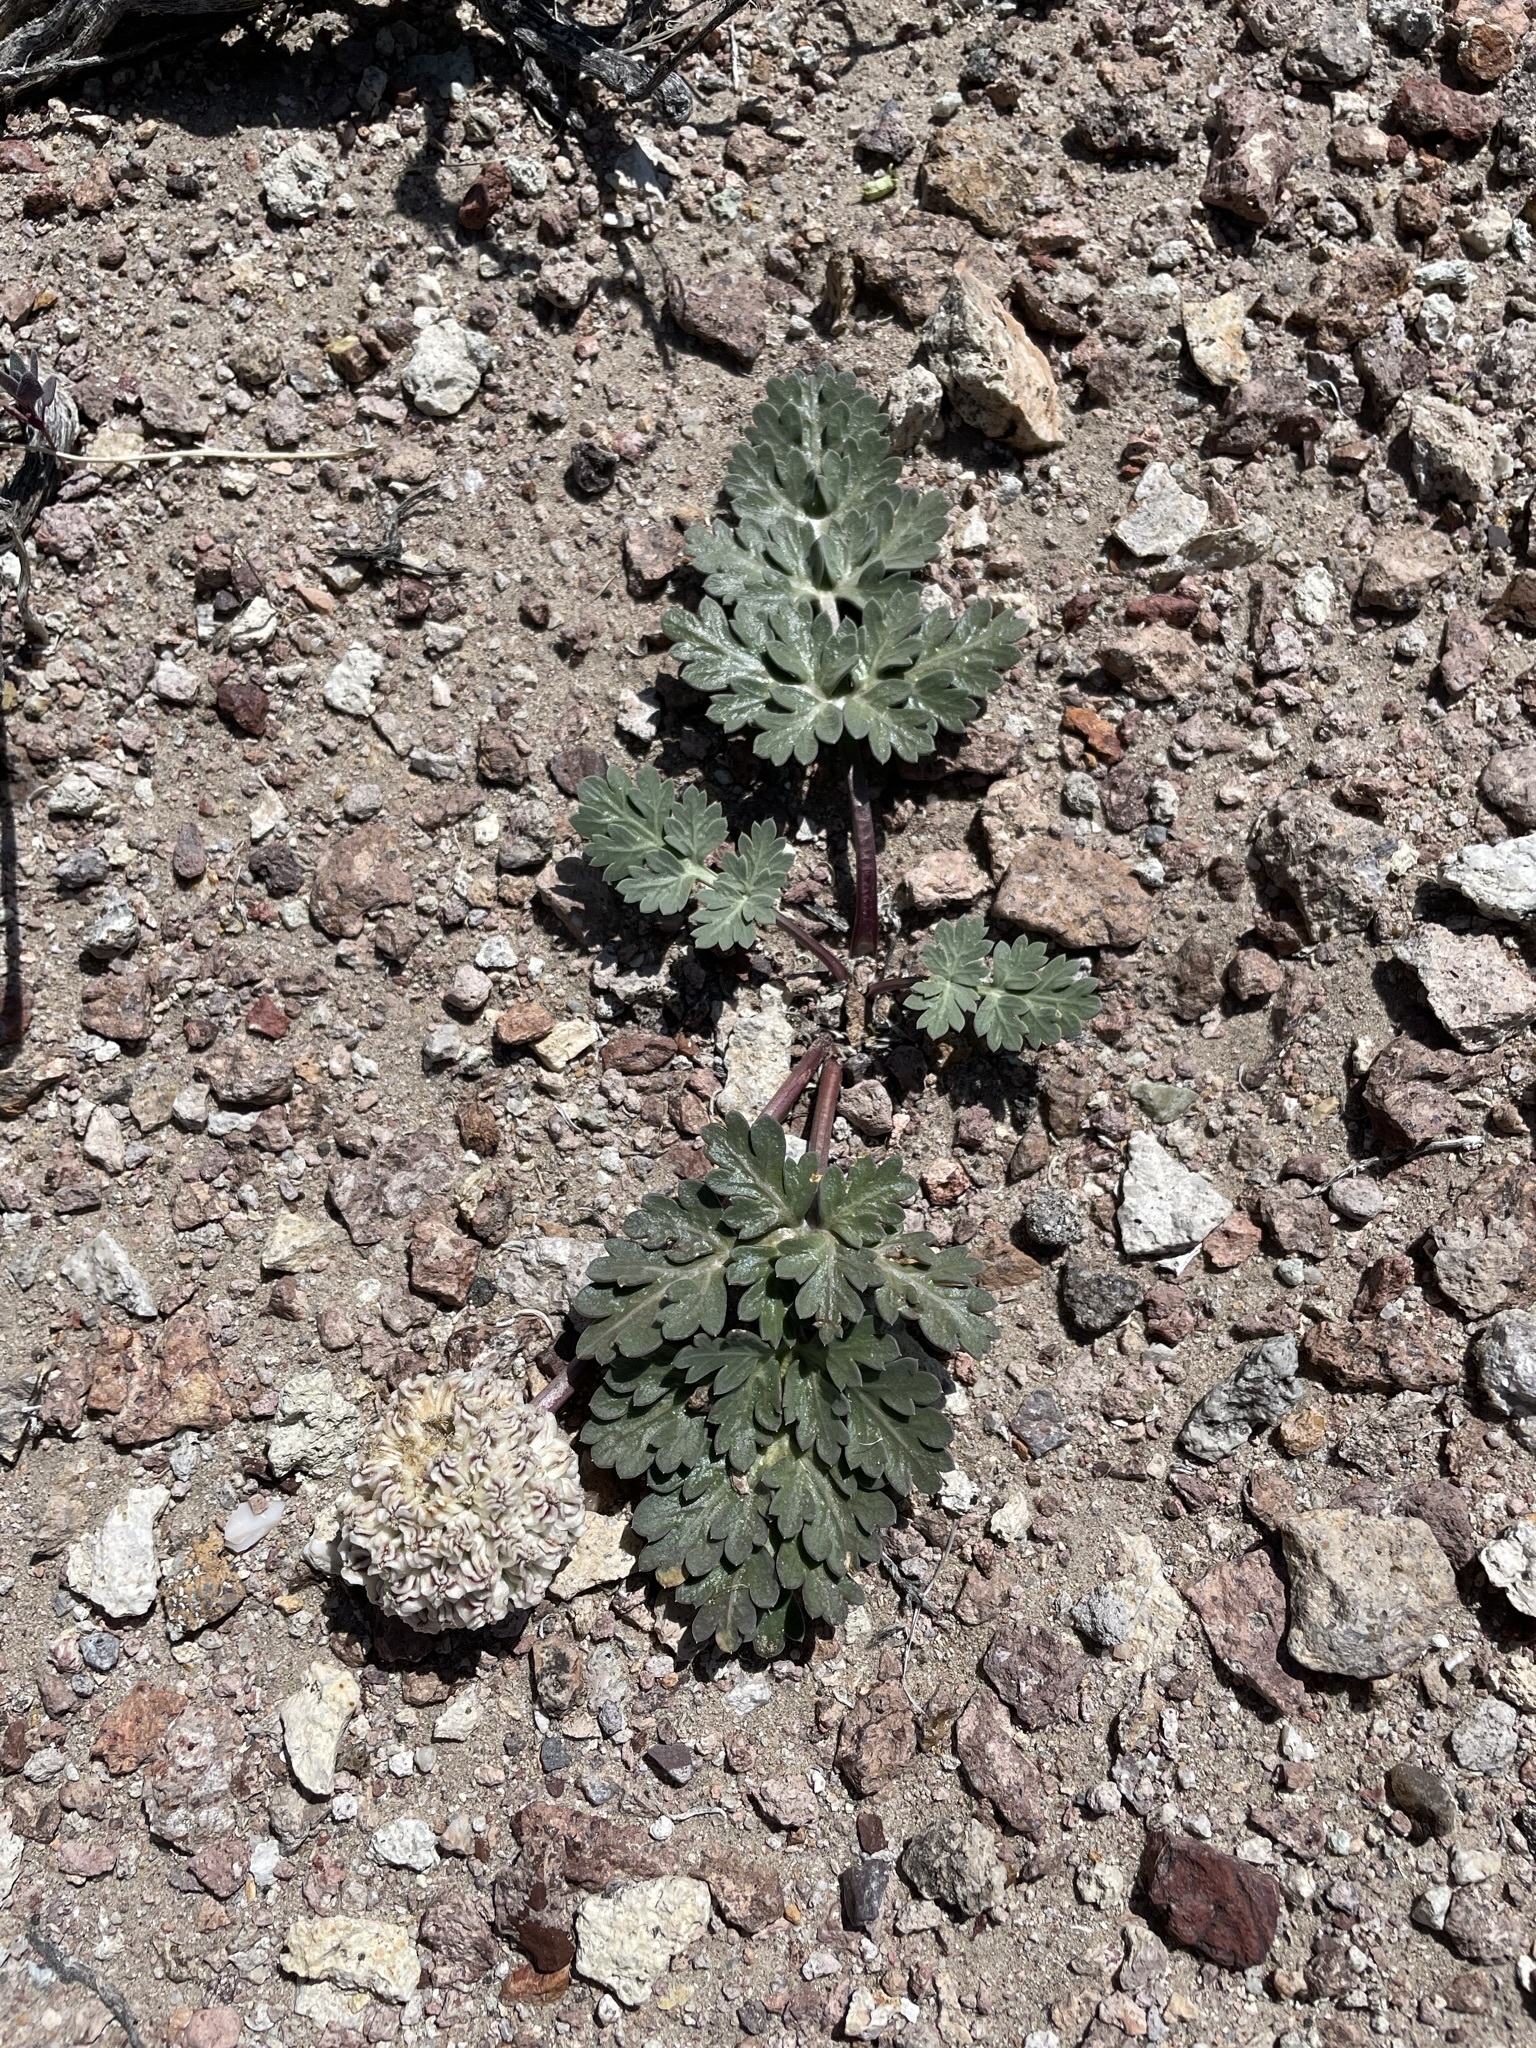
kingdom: Plantae
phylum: Tracheophyta
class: Magnoliopsida
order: Apiales
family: Apiaceae
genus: Cymopterus
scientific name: Cymopterus globosus
